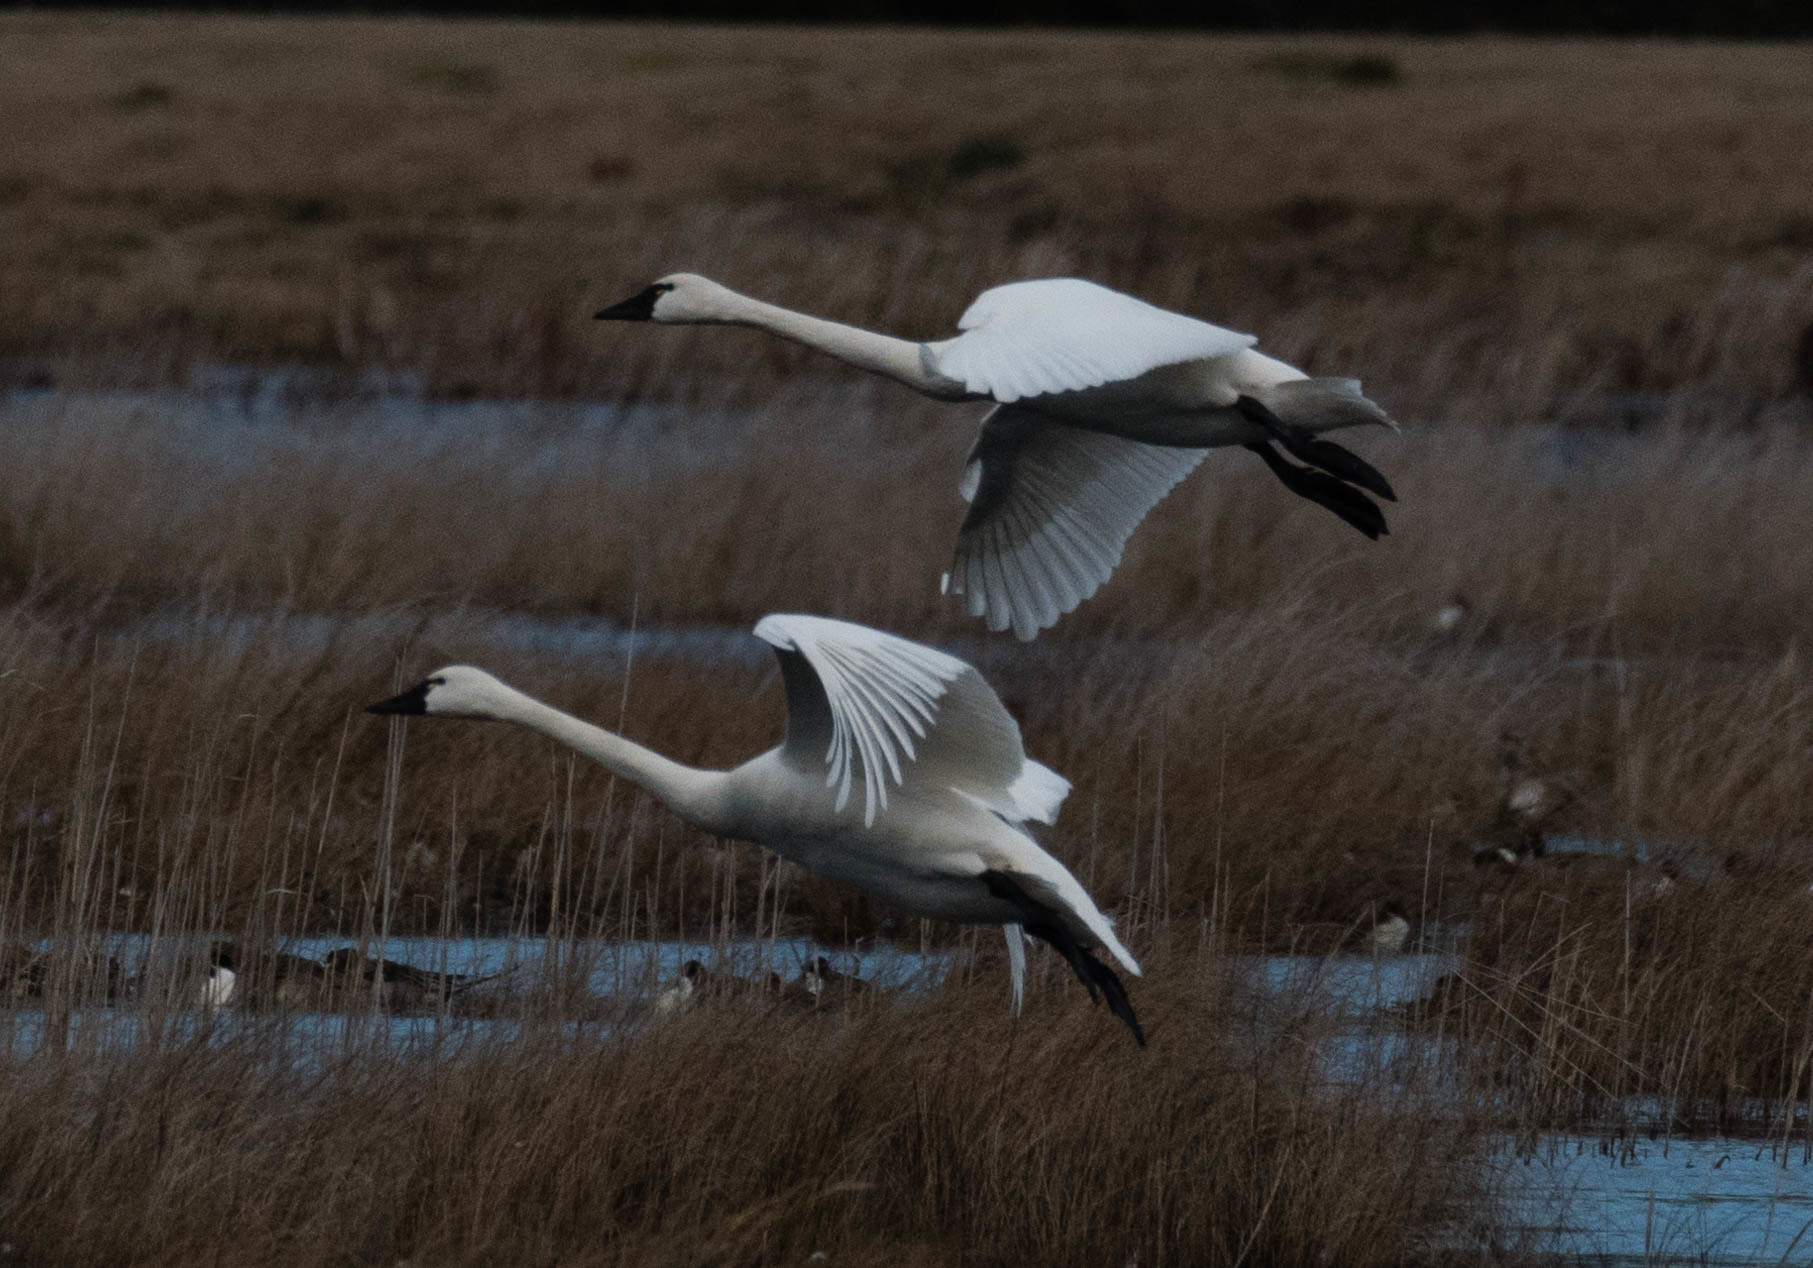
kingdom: Animalia
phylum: Chordata
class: Aves
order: Anseriformes
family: Anatidae
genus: Cygnus
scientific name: Cygnus columbianus
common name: Tundra swan
